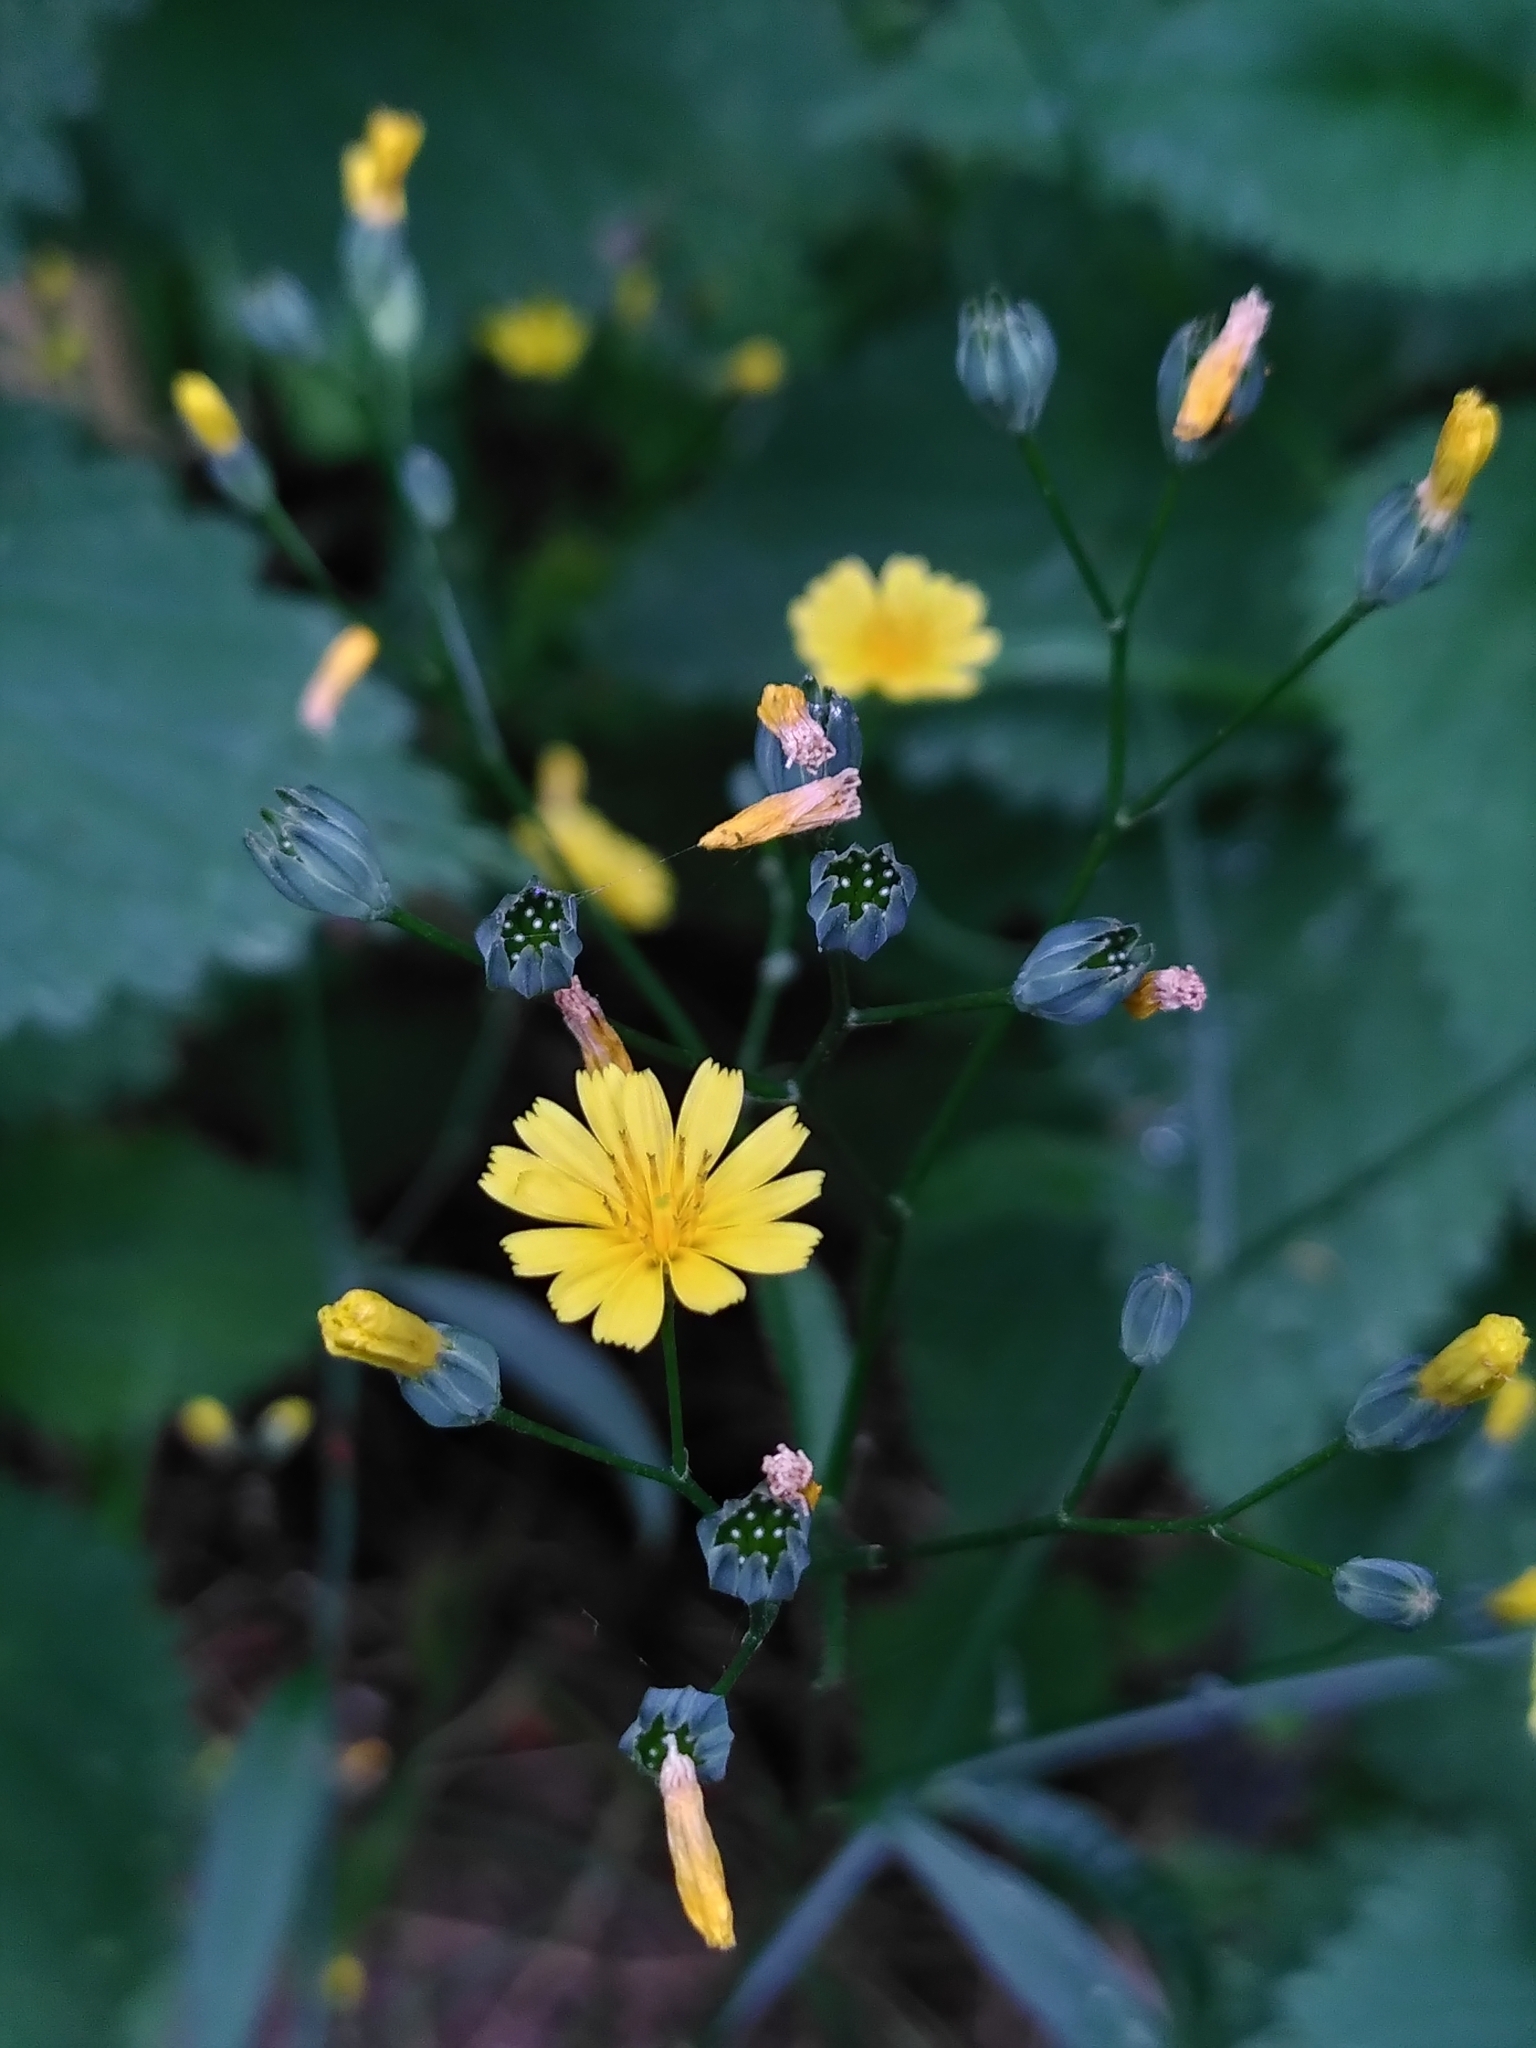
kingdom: Plantae
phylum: Tracheophyta
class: Magnoliopsida
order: Asterales
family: Asteraceae
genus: Lapsana
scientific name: Lapsana communis
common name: Nipplewort
